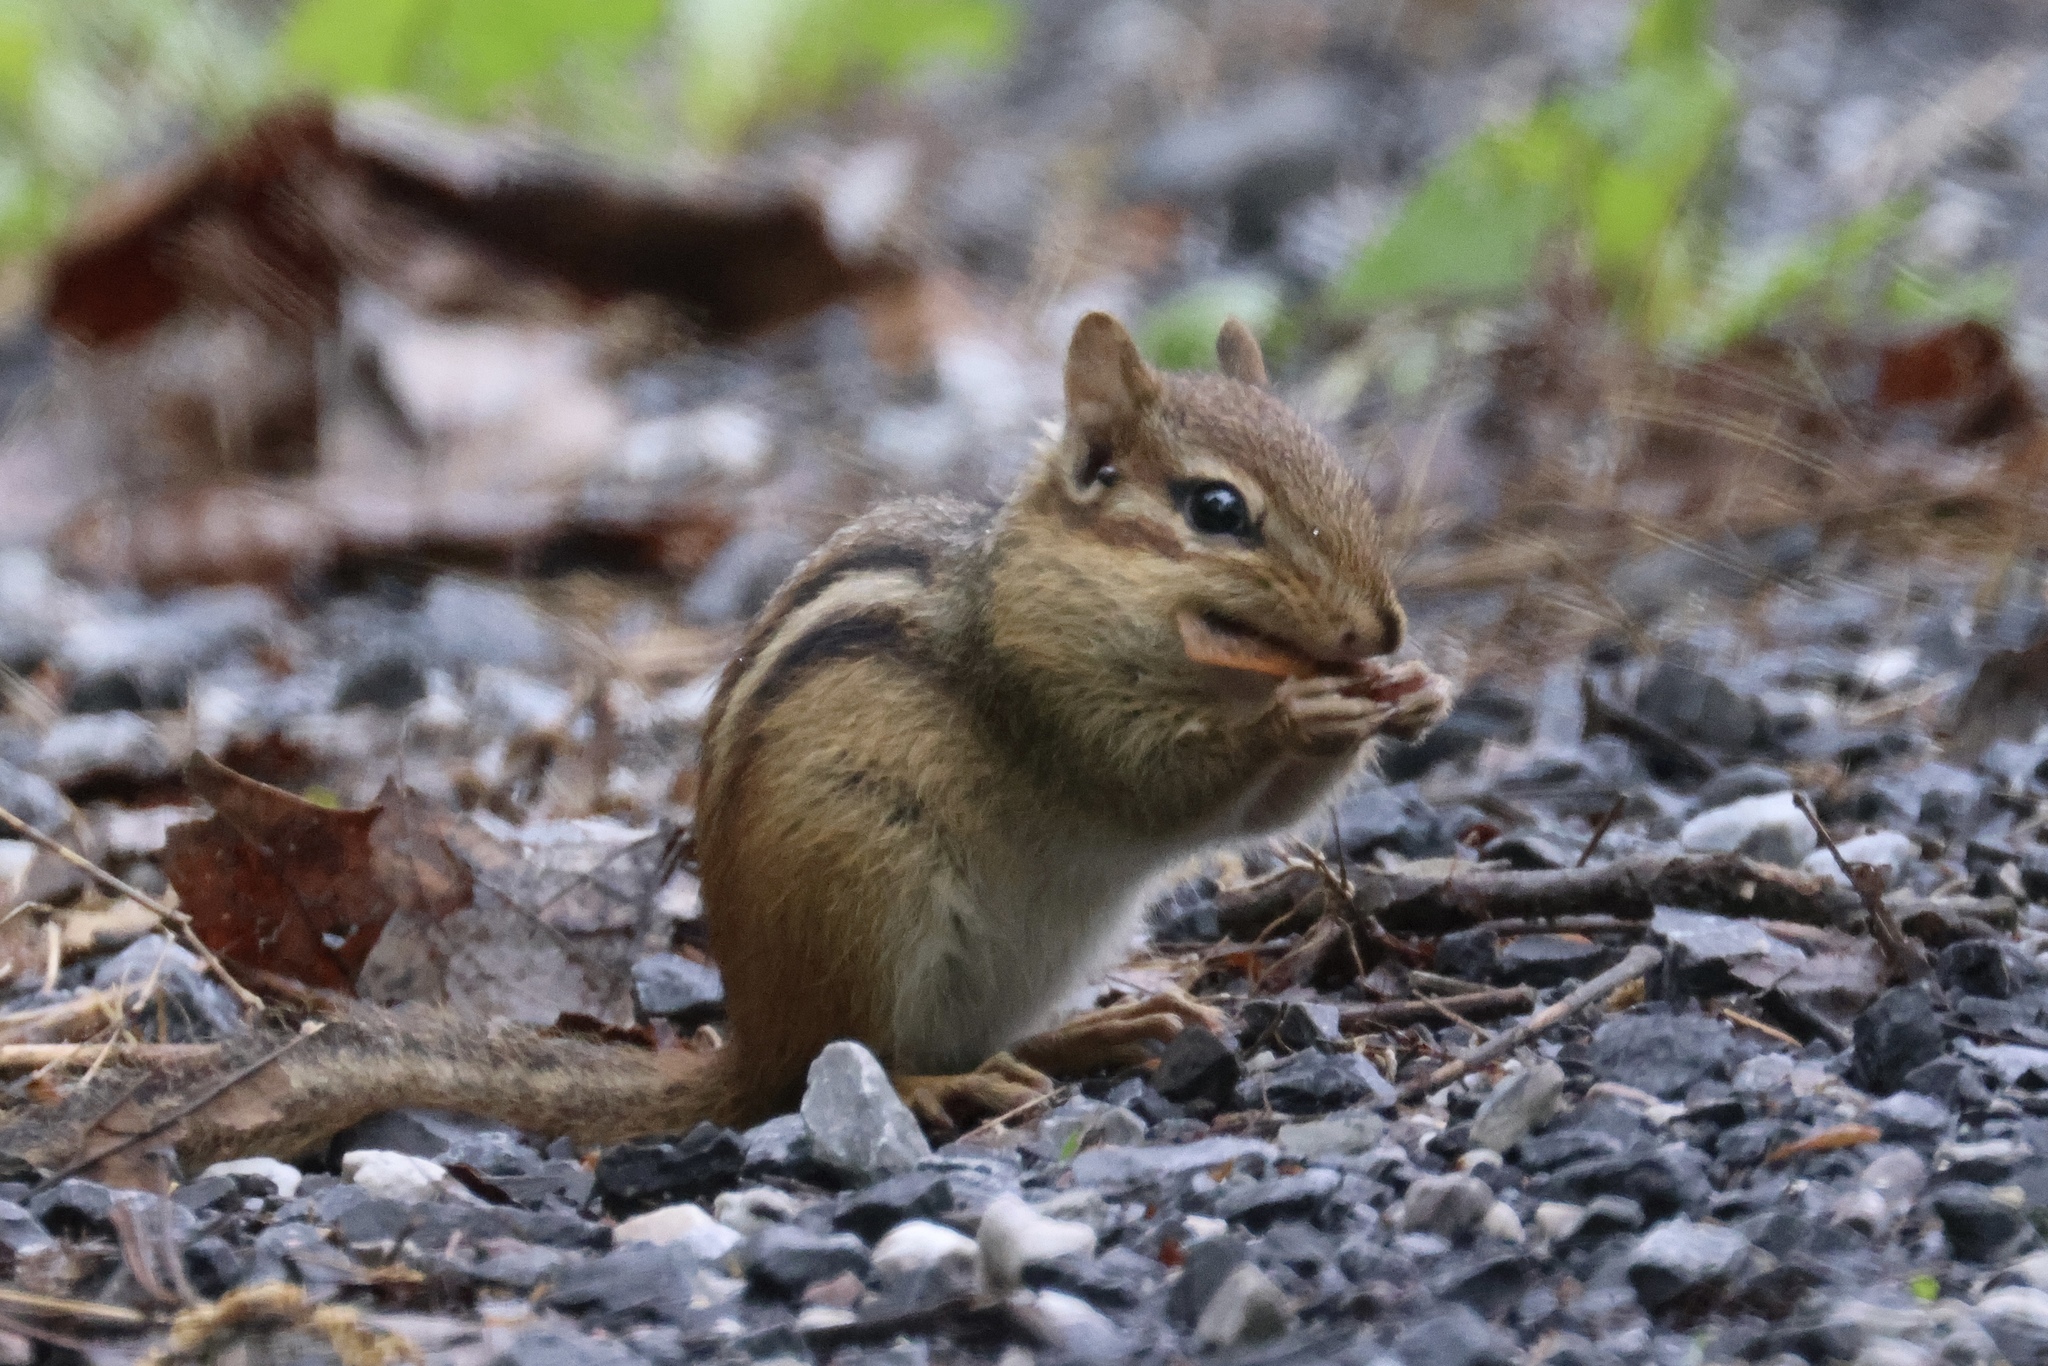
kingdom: Animalia
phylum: Chordata
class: Mammalia
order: Rodentia
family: Sciuridae
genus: Tamias
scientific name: Tamias striatus
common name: Eastern chipmunk
